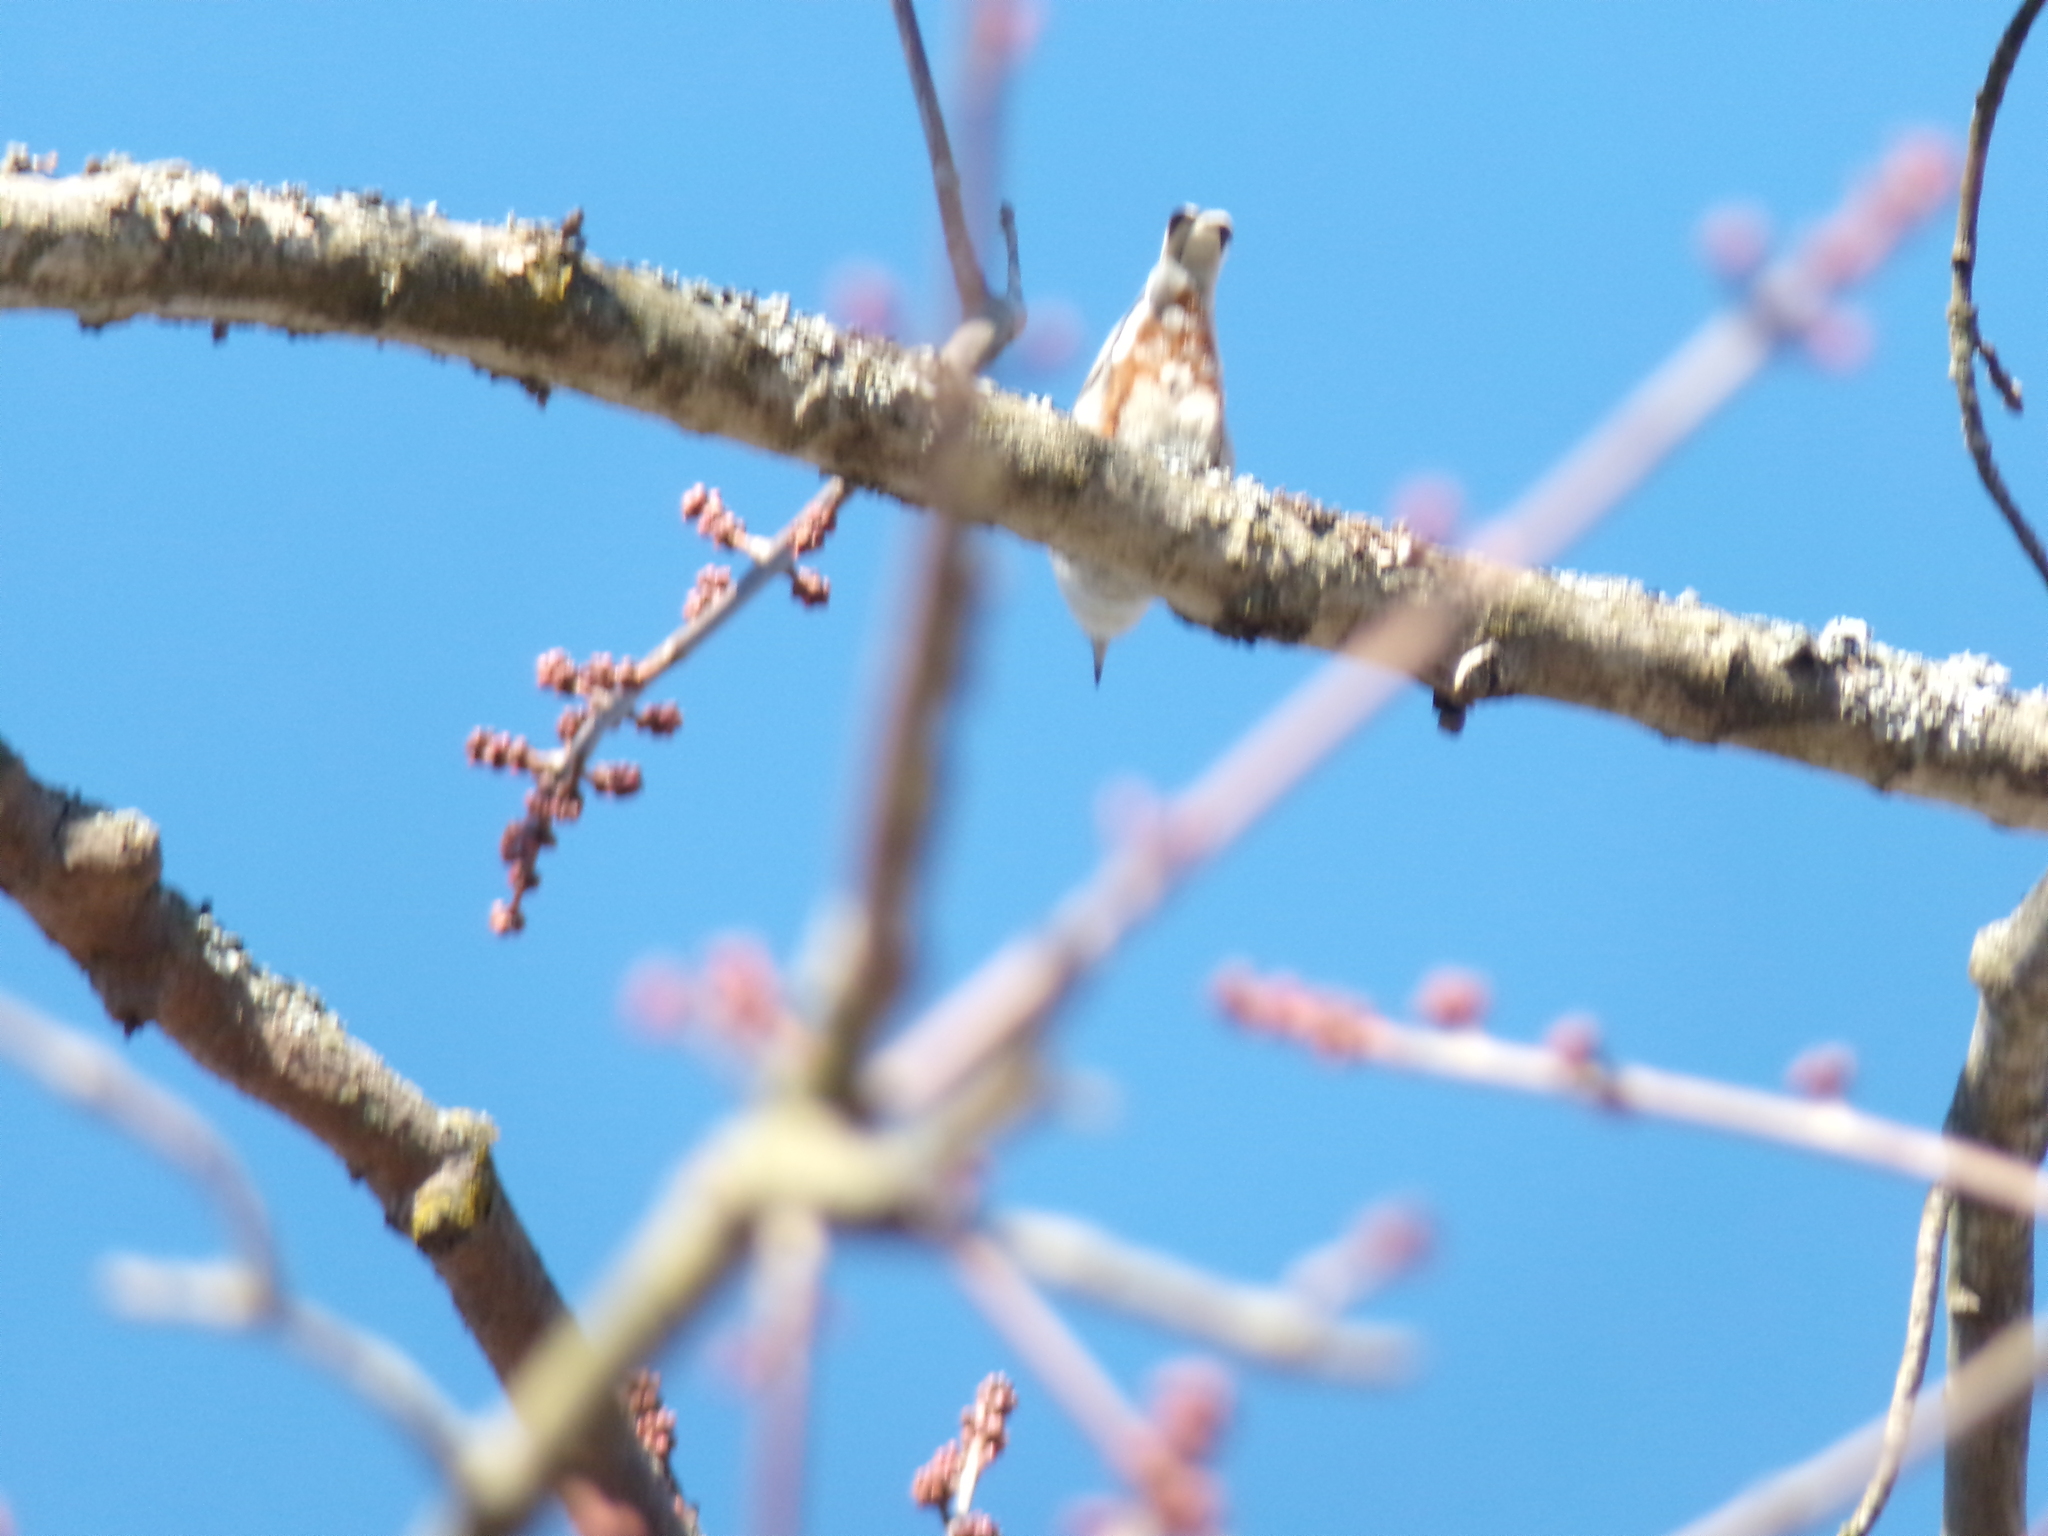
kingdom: Animalia
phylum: Chordata
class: Aves
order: Passeriformes
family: Sittidae
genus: Sitta
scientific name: Sitta carolinensis
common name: White-breasted nuthatch
